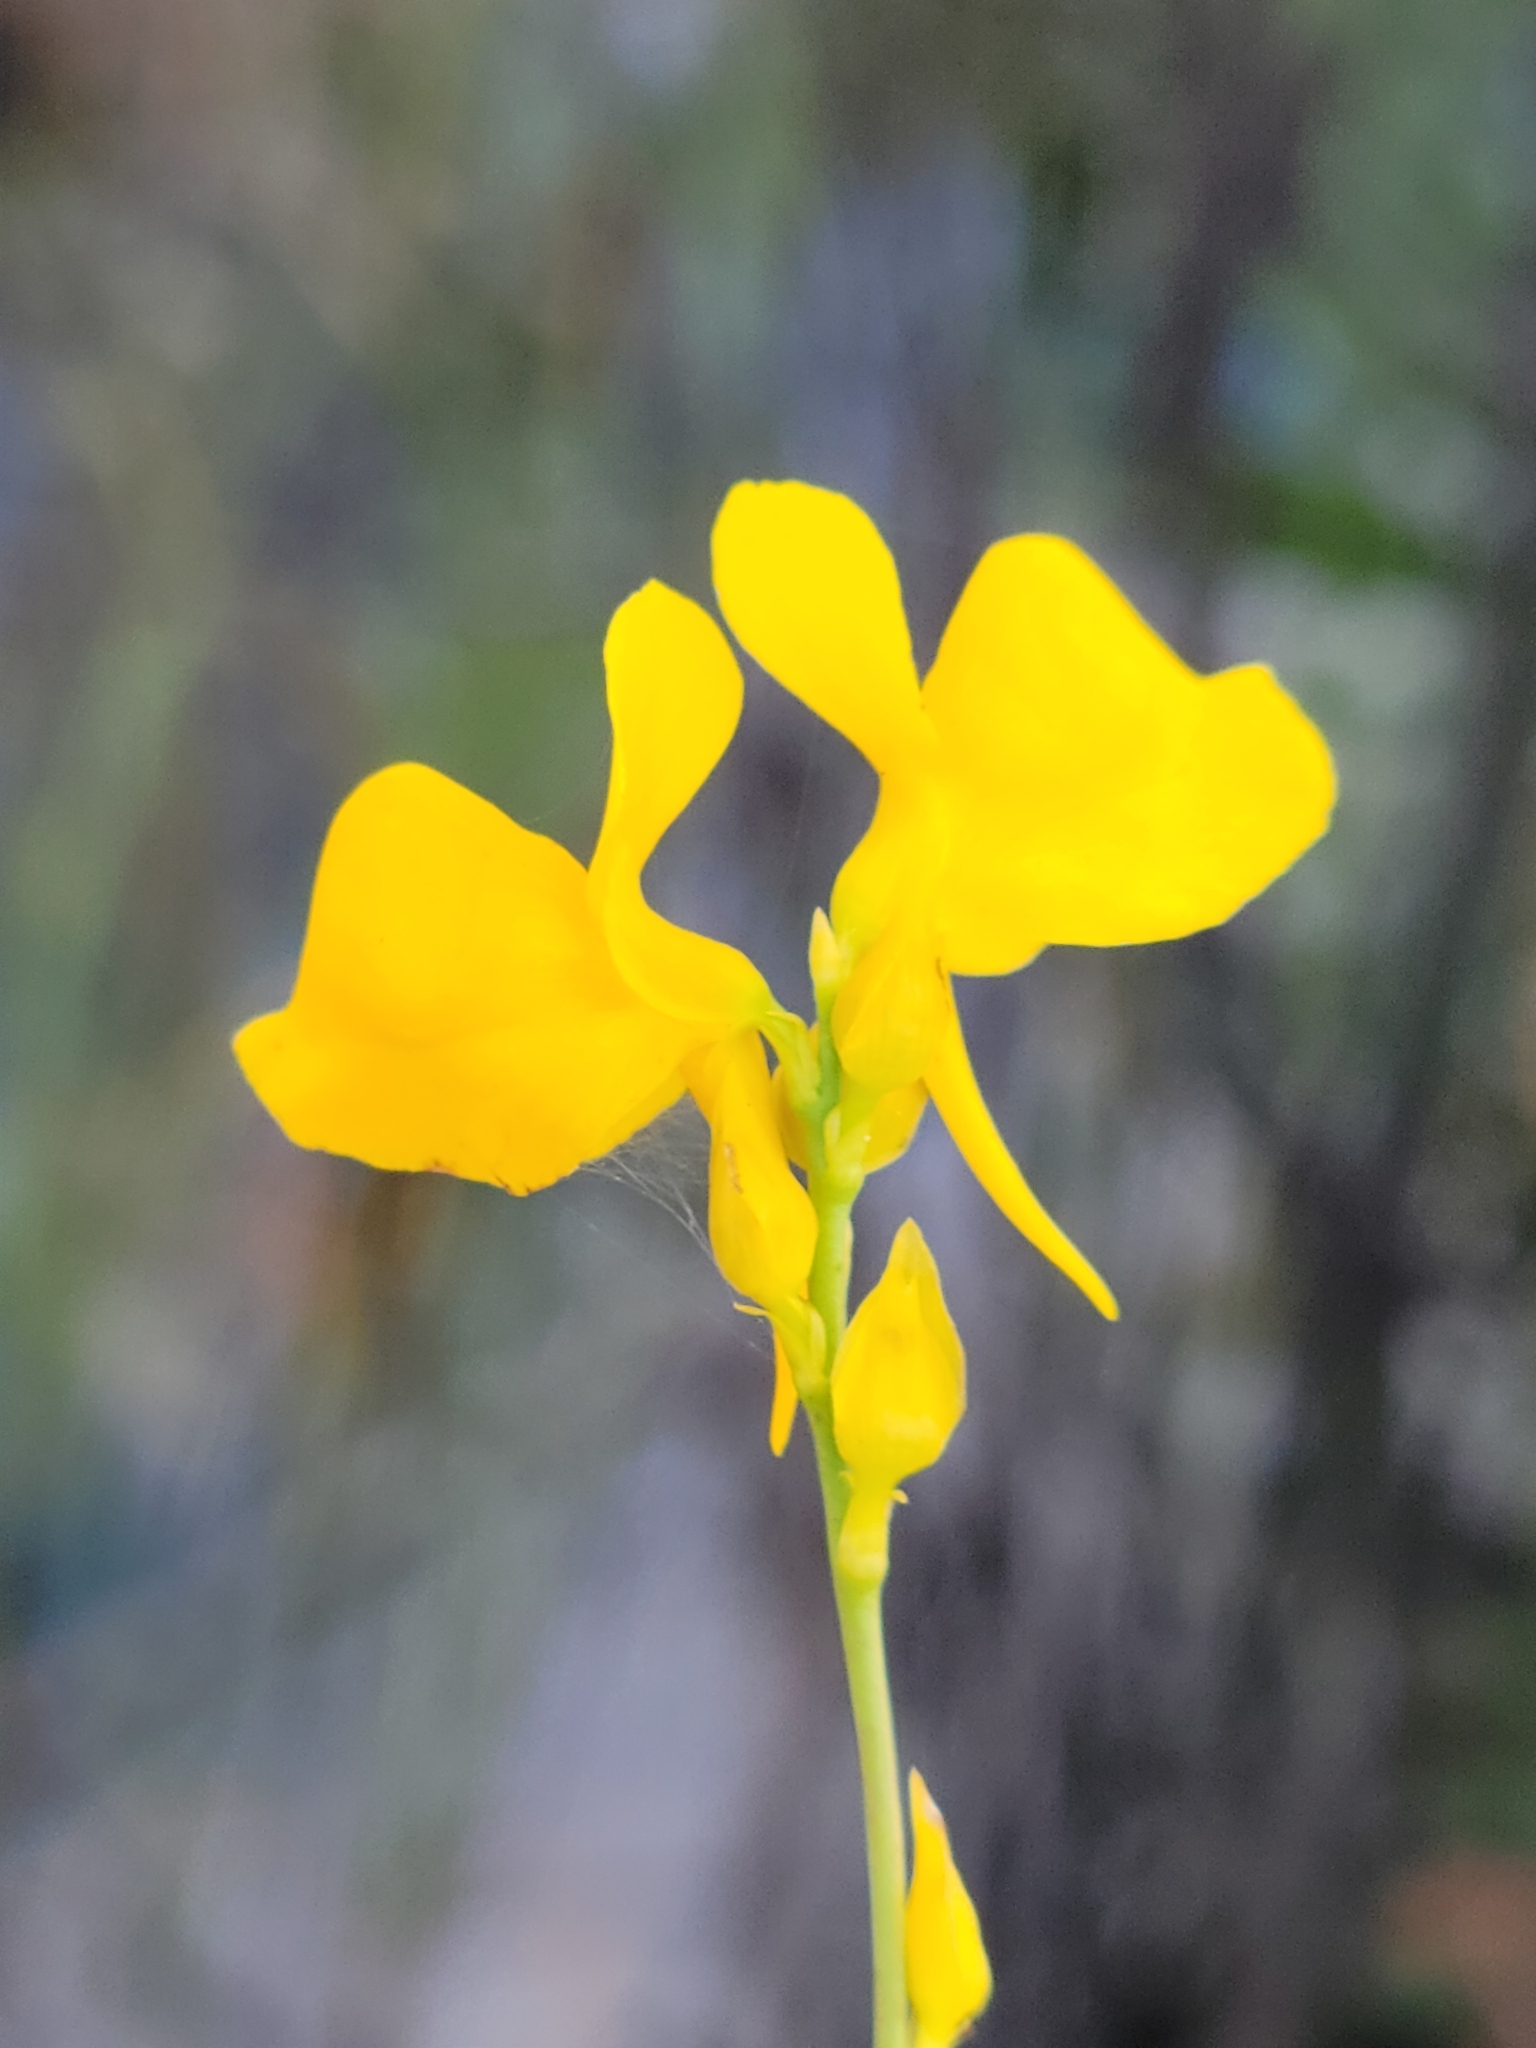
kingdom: Plantae
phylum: Tracheophyta
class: Magnoliopsida
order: Lamiales
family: Lentibulariaceae
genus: Utricularia
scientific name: Utricularia cornuta
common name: Horned bladderwort
